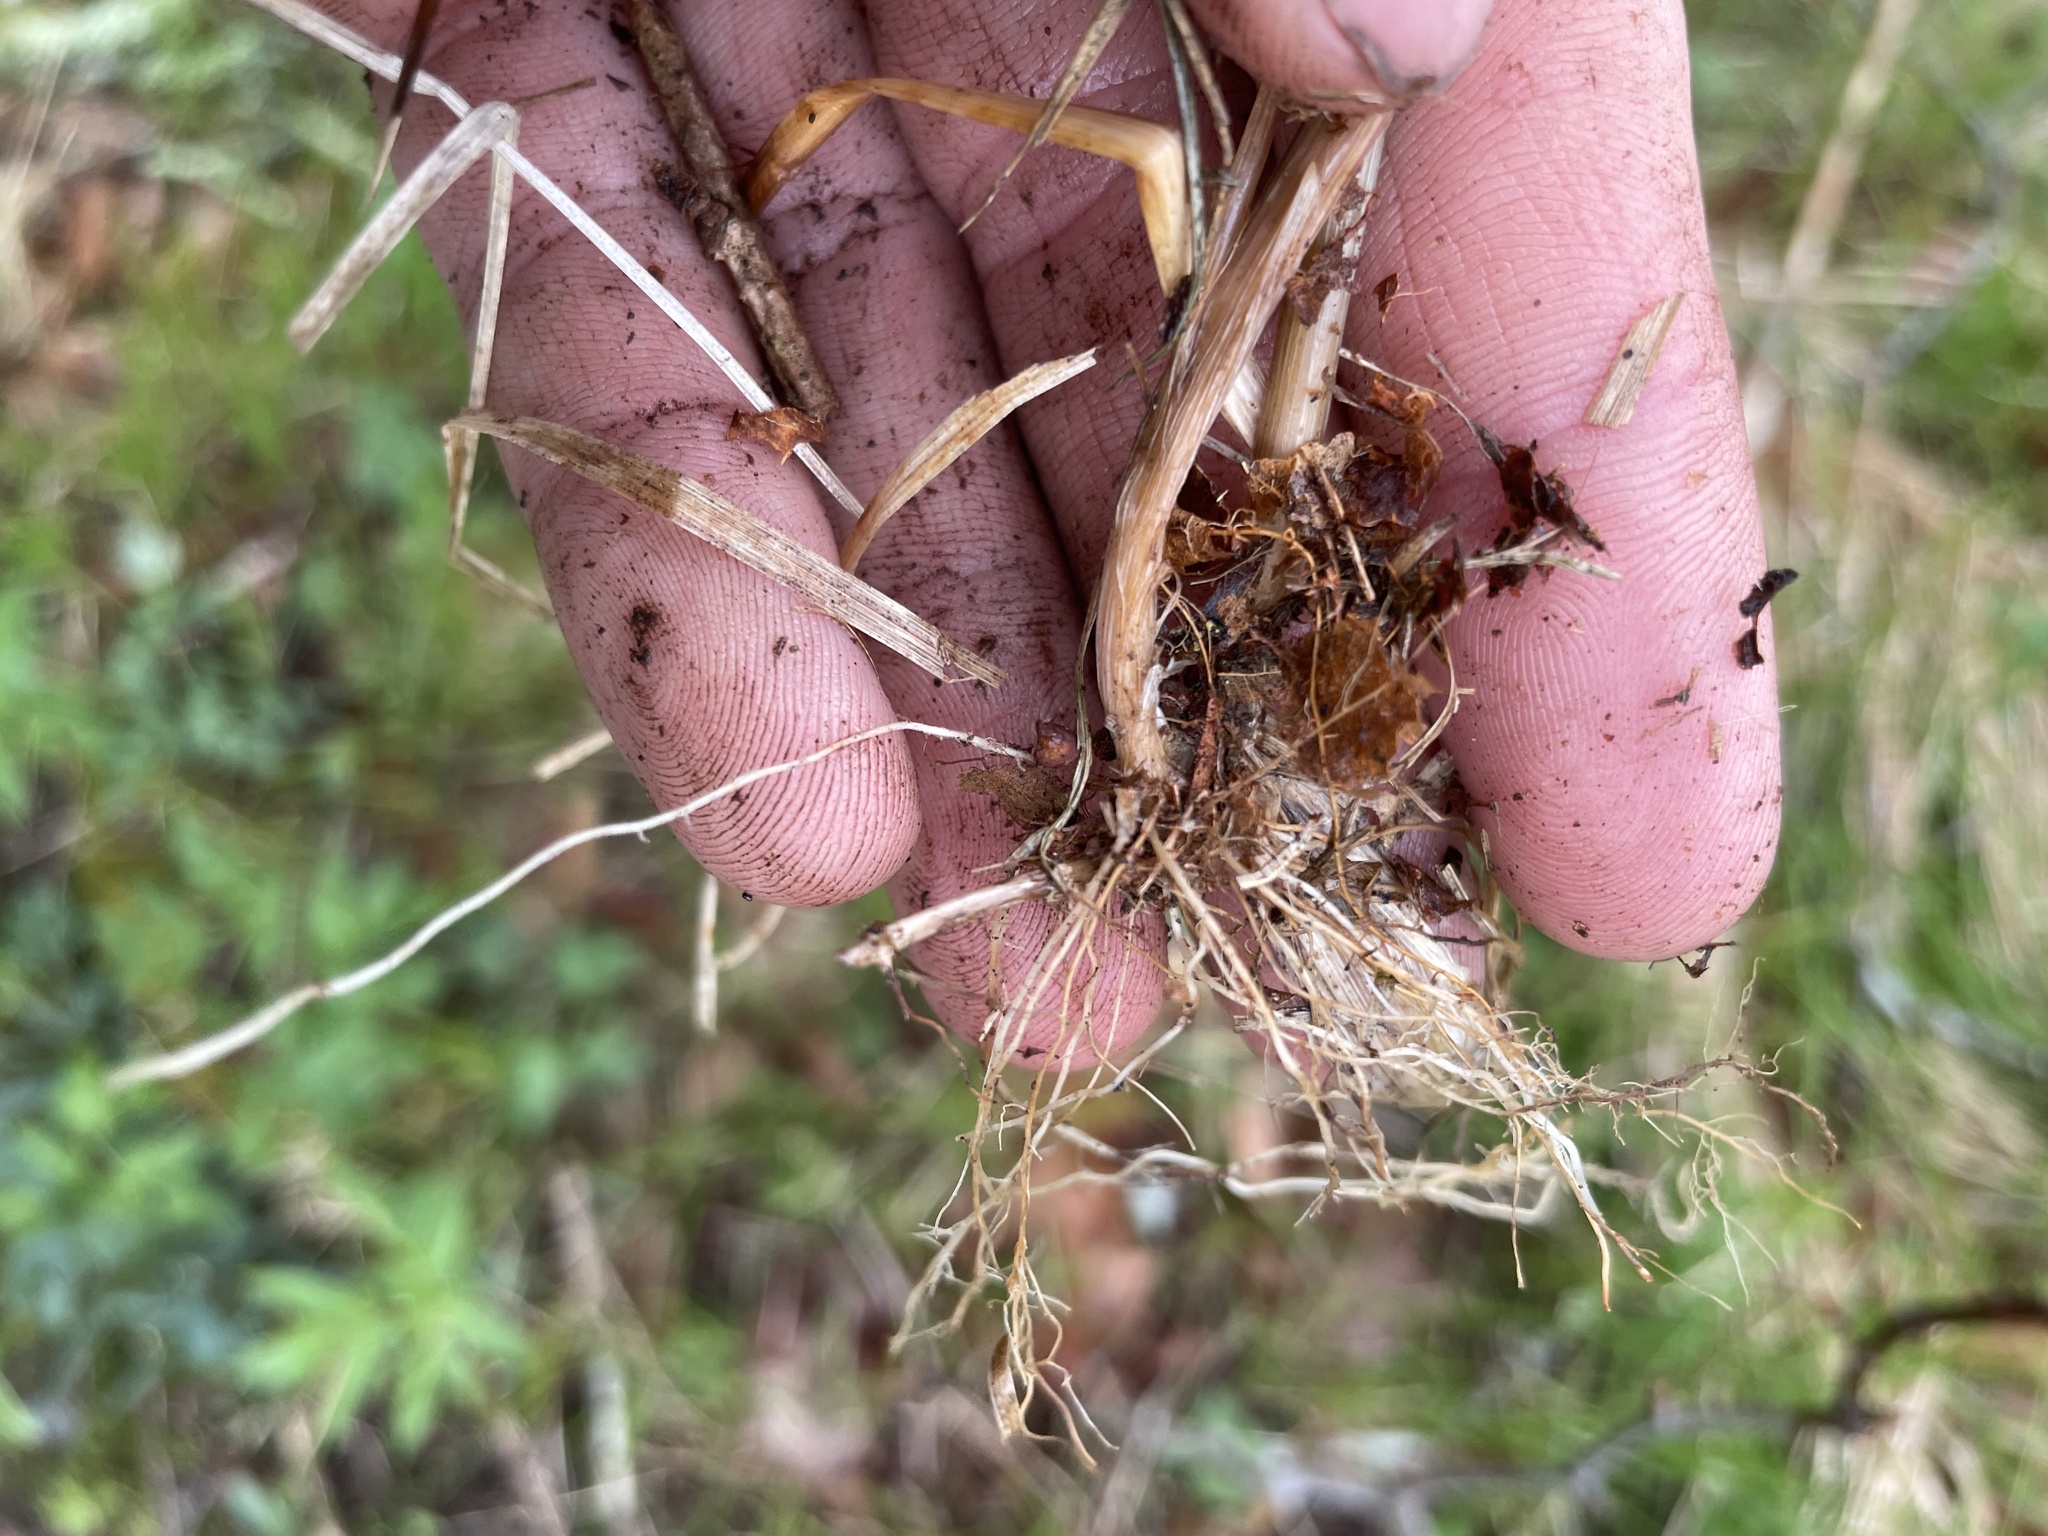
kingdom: Plantae
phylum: Tracheophyta
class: Liliopsida
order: Poales
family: Poaceae
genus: Poa
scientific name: Poa compressa
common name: Canada bluegrass
